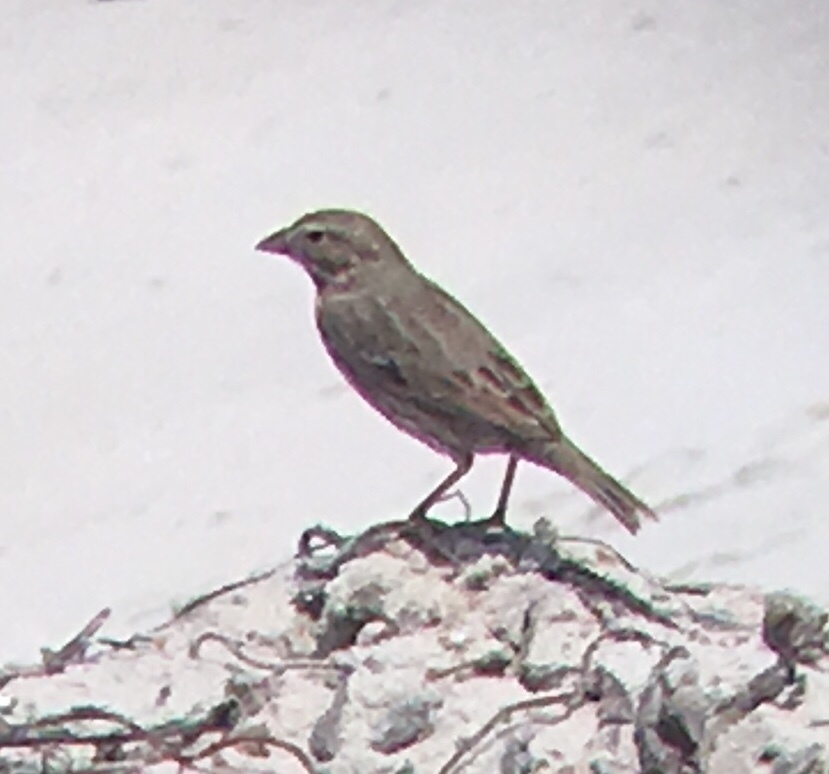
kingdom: Animalia
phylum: Chordata
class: Aves
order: Passeriformes
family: Passerellidae
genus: Passerculus
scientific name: Passerculus sandwichensis
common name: Savannah sparrow
